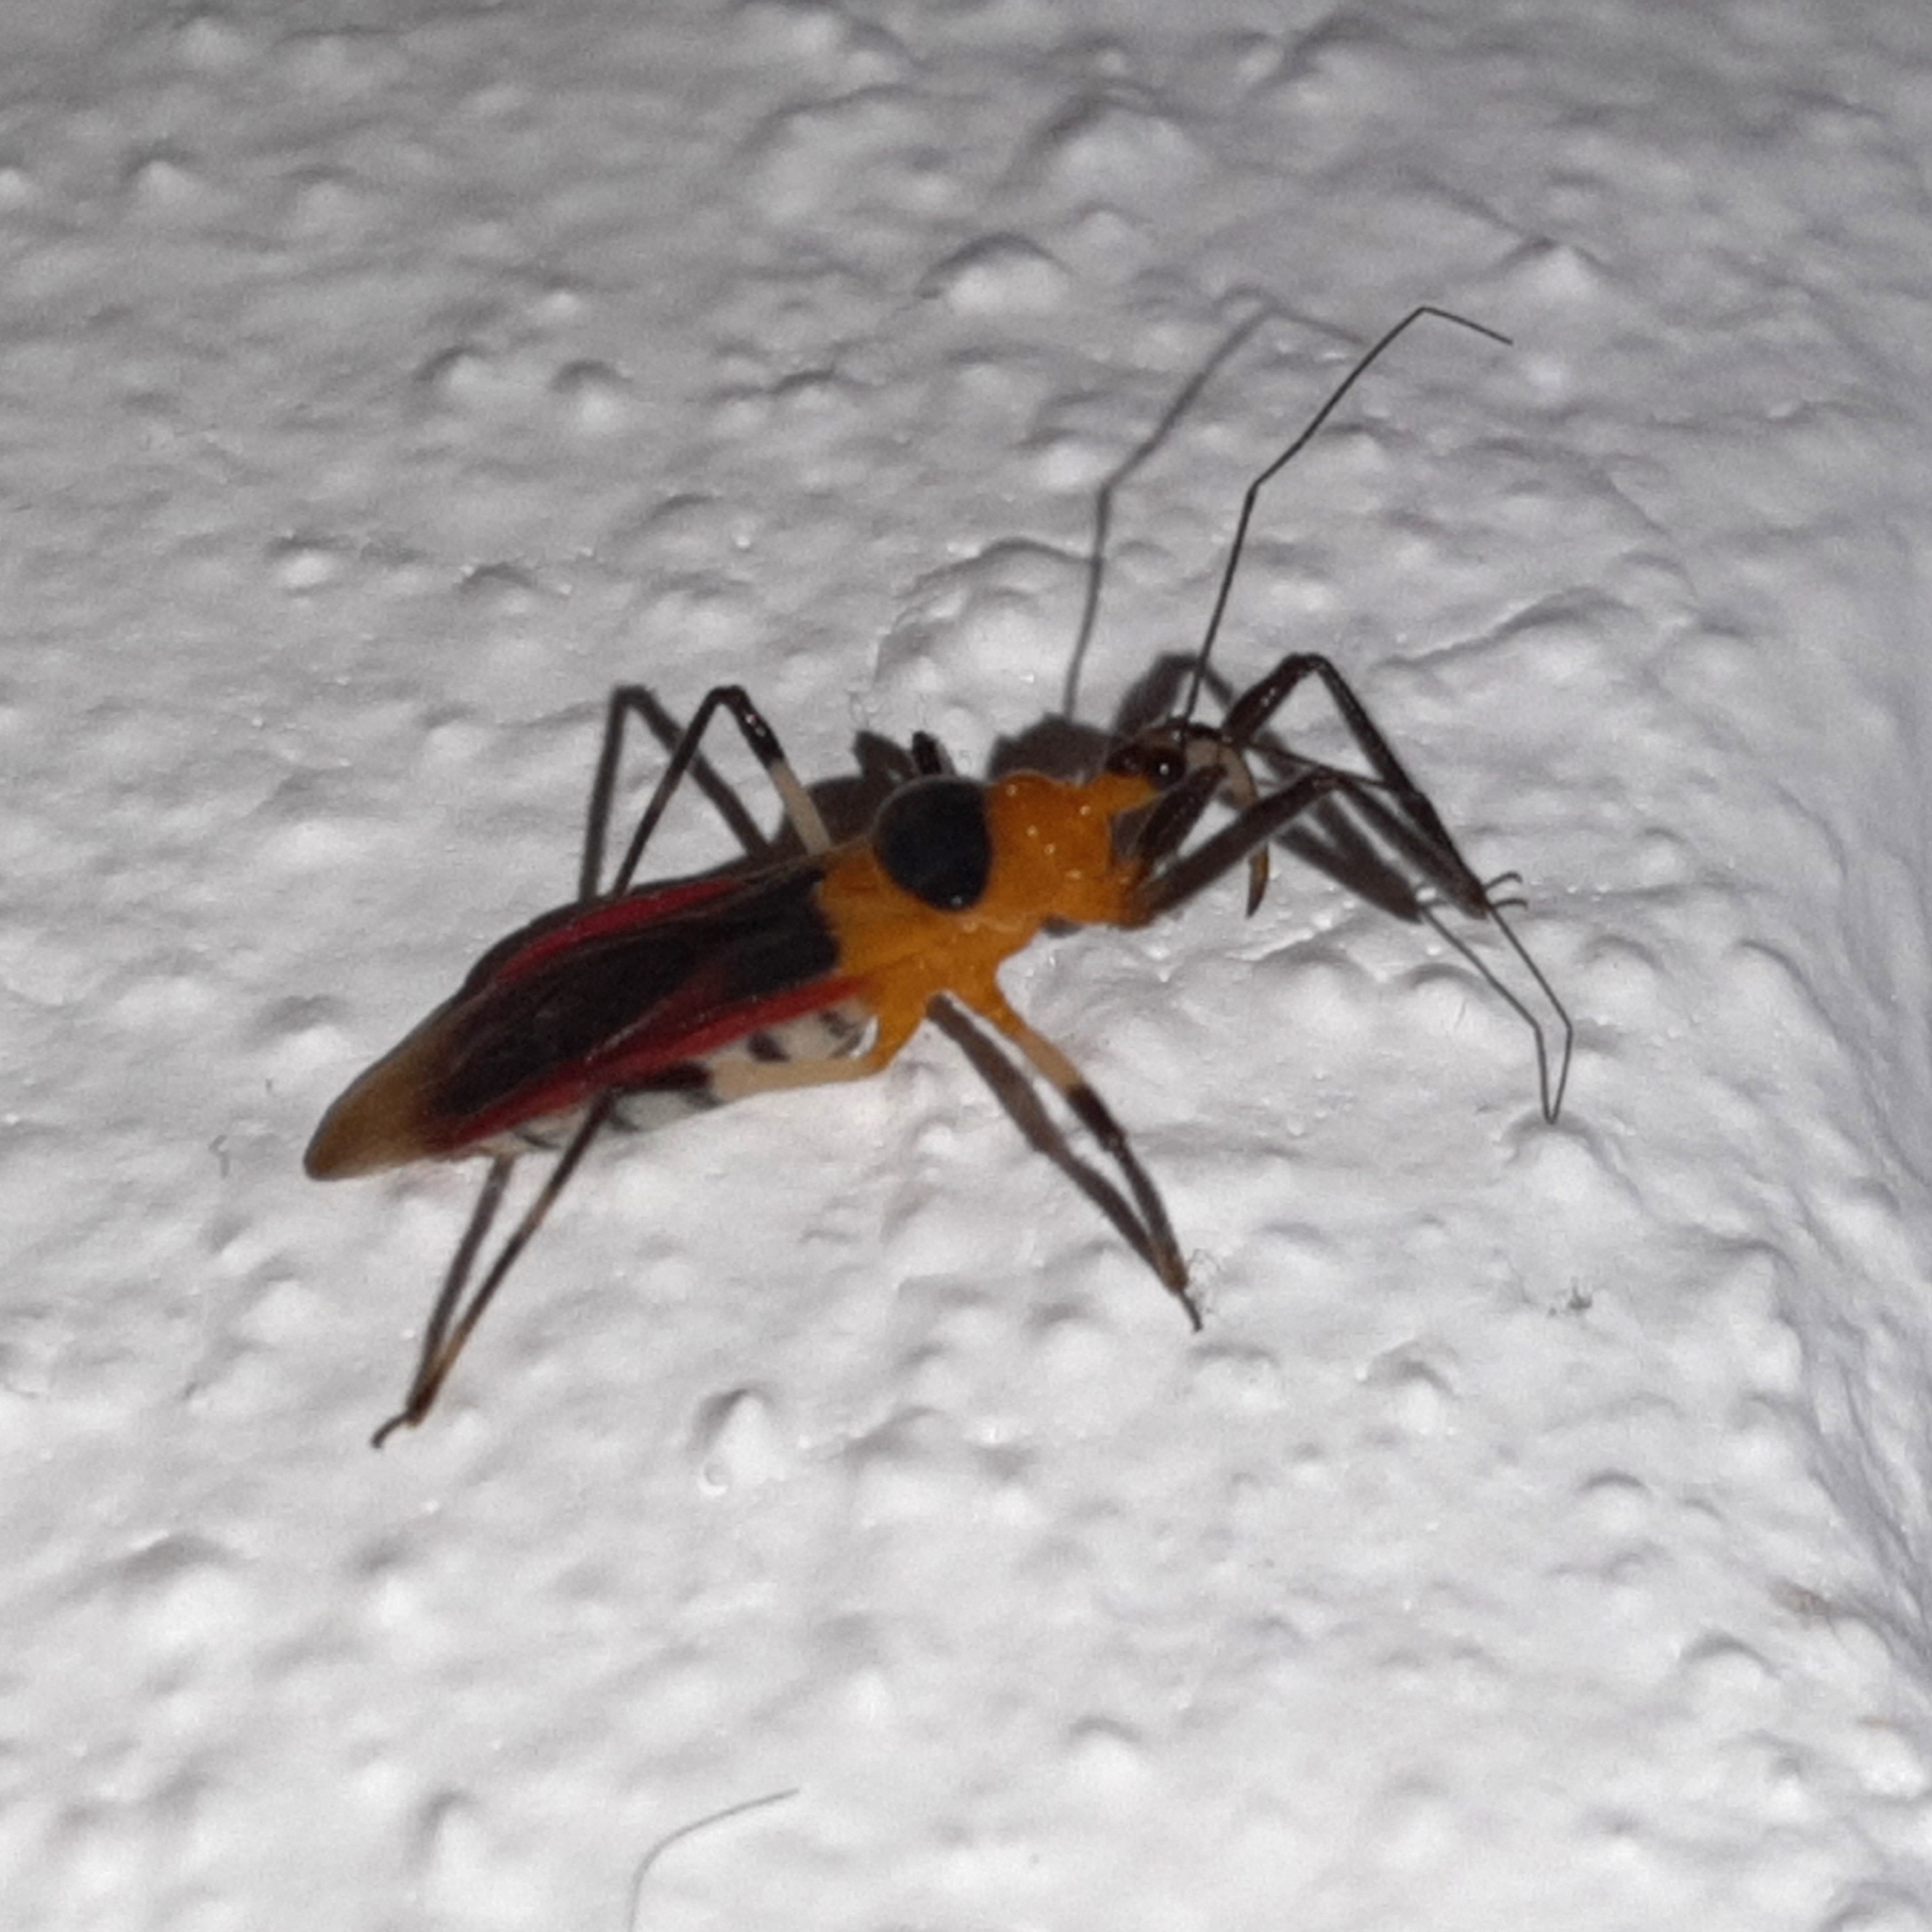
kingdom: Animalia
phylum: Arthropoda
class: Insecta
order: Hemiptera
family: Reduviidae
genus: Castolus
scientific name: Castolus tricolor
